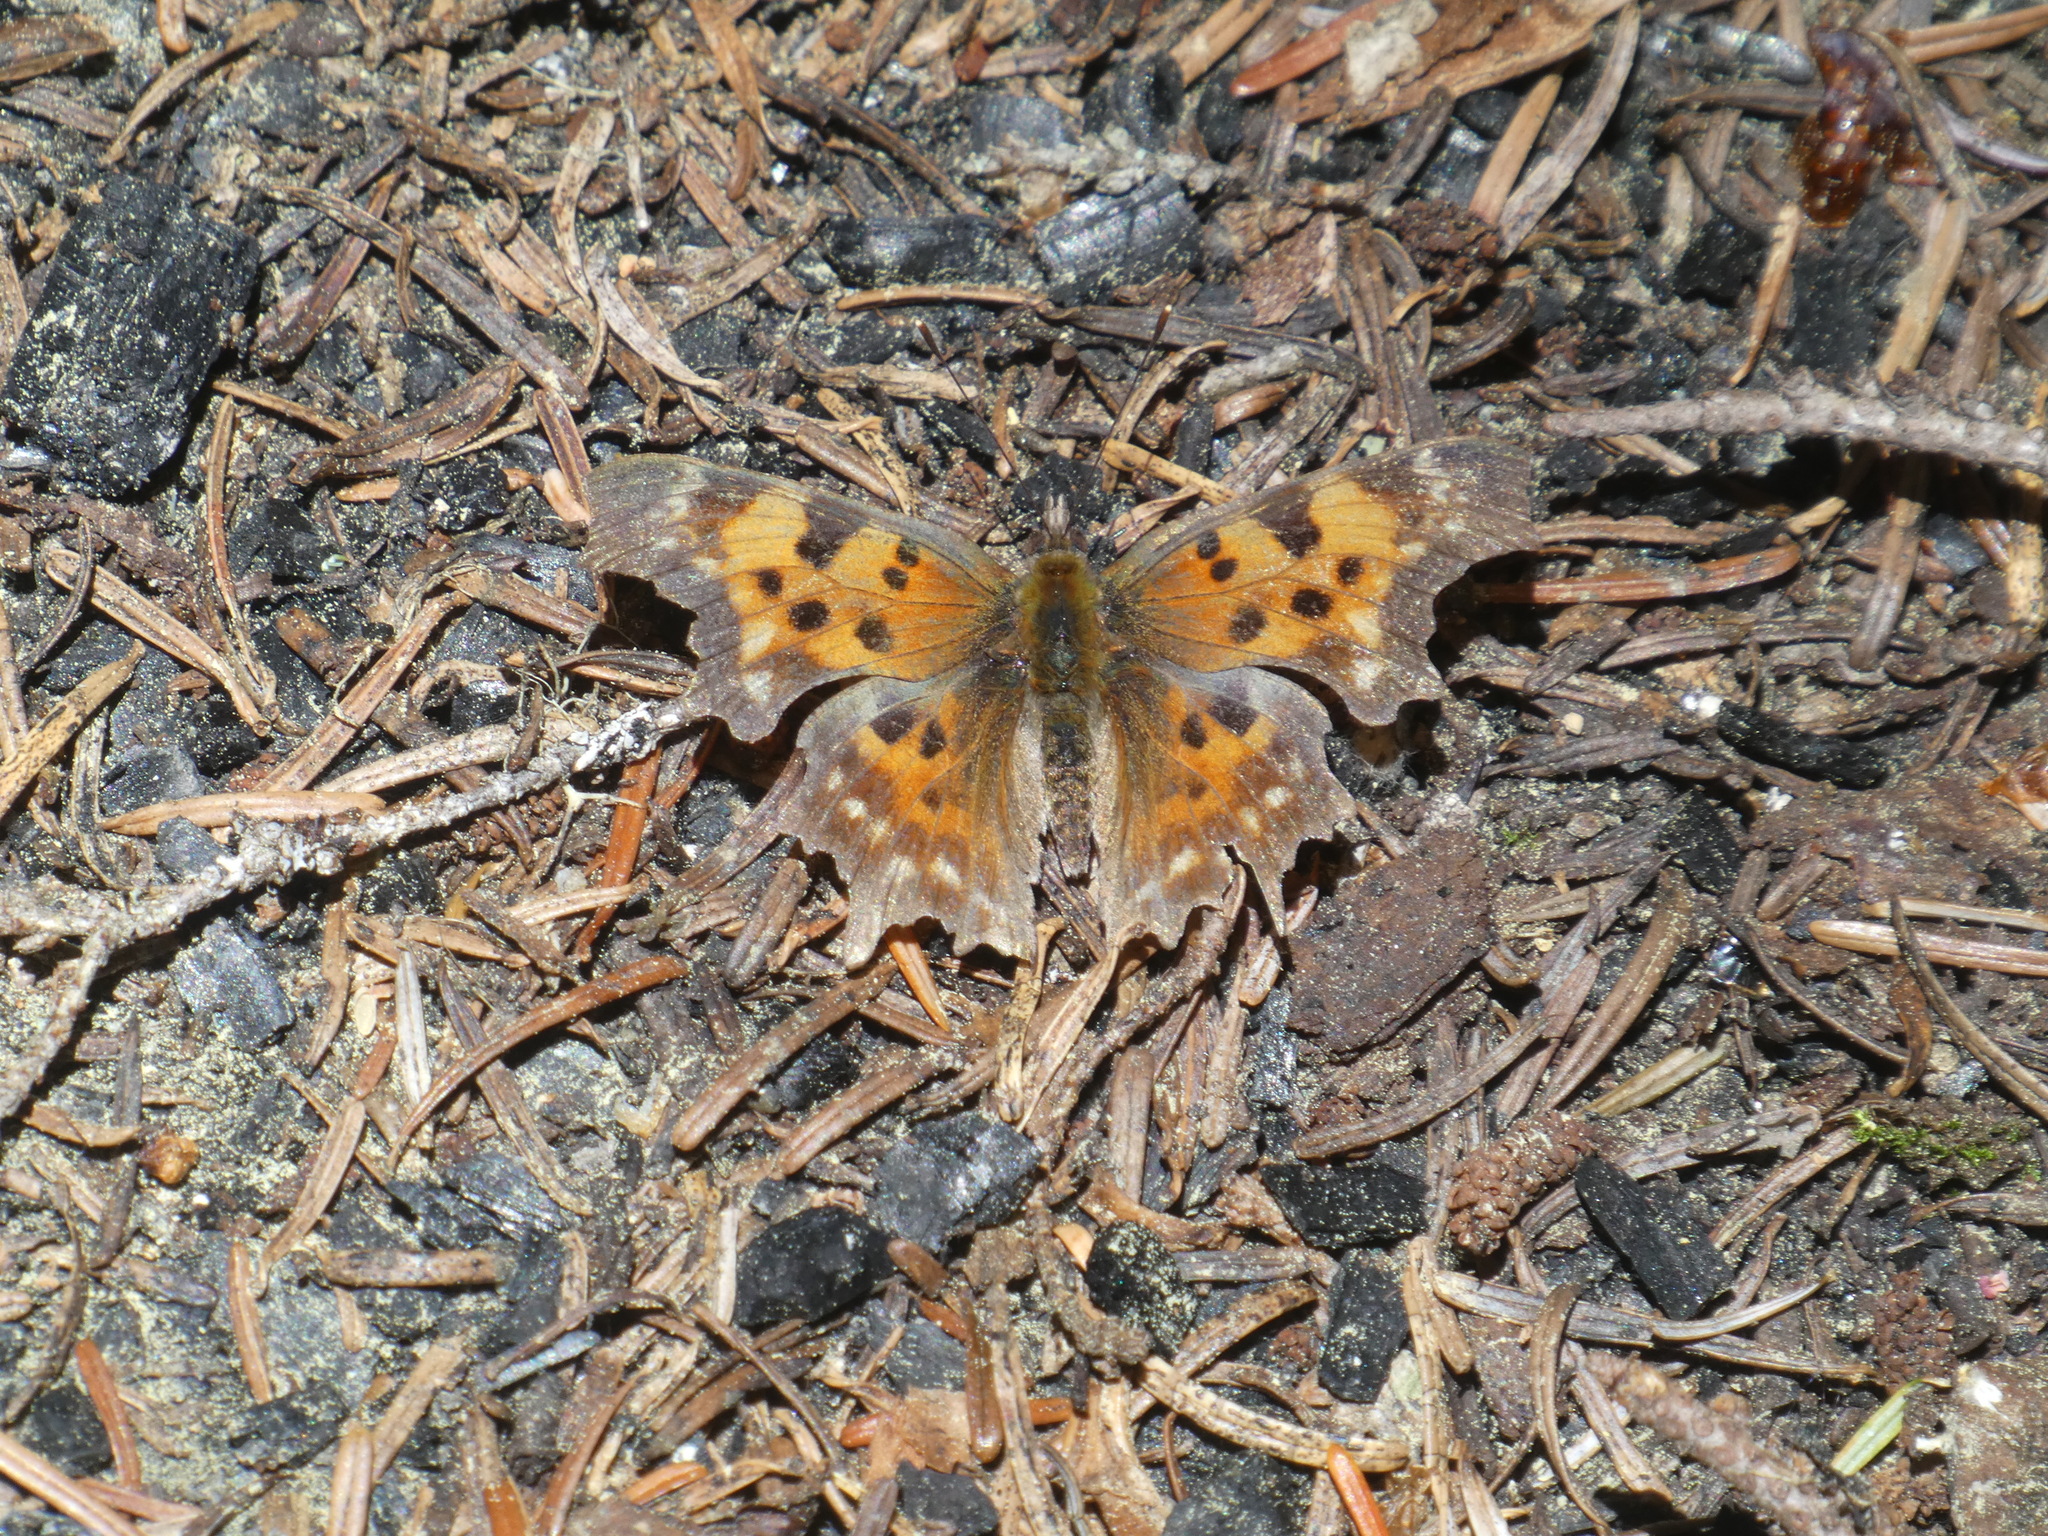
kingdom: Animalia
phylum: Arthropoda
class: Insecta
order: Lepidoptera
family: Nymphalidae
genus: Polygonia
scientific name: Polygonia faunus
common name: Green comma
